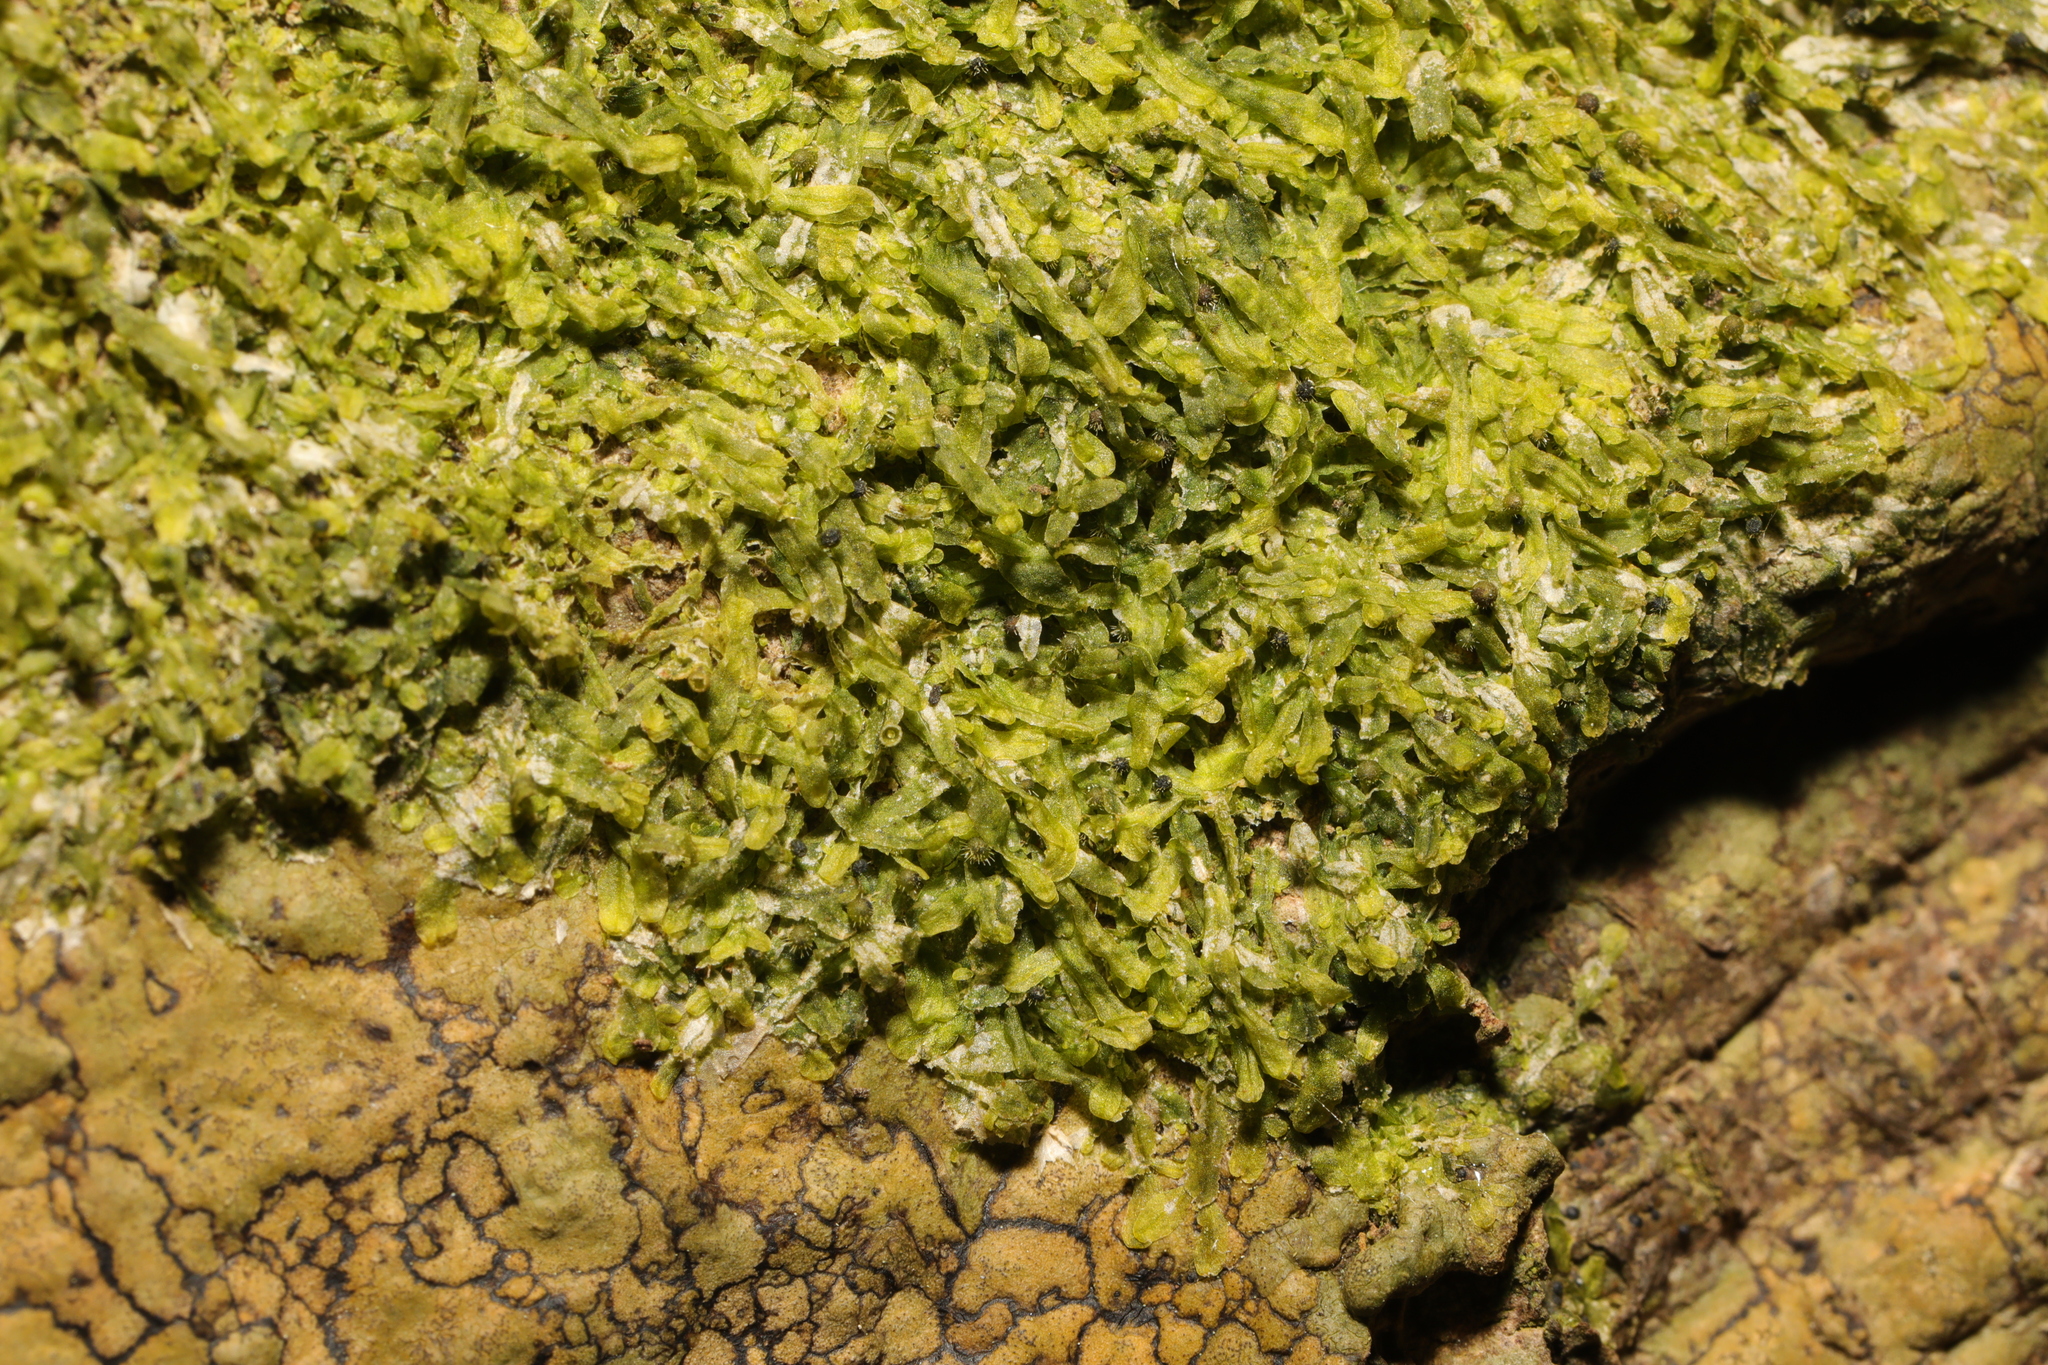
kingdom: Plantae
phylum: Marchantiophyta
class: Jungermanniopsida
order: Metzgeriales
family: Metzgeriaceae
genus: Metzgeria
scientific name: Metzgeria furcata
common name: Forked veilwort
